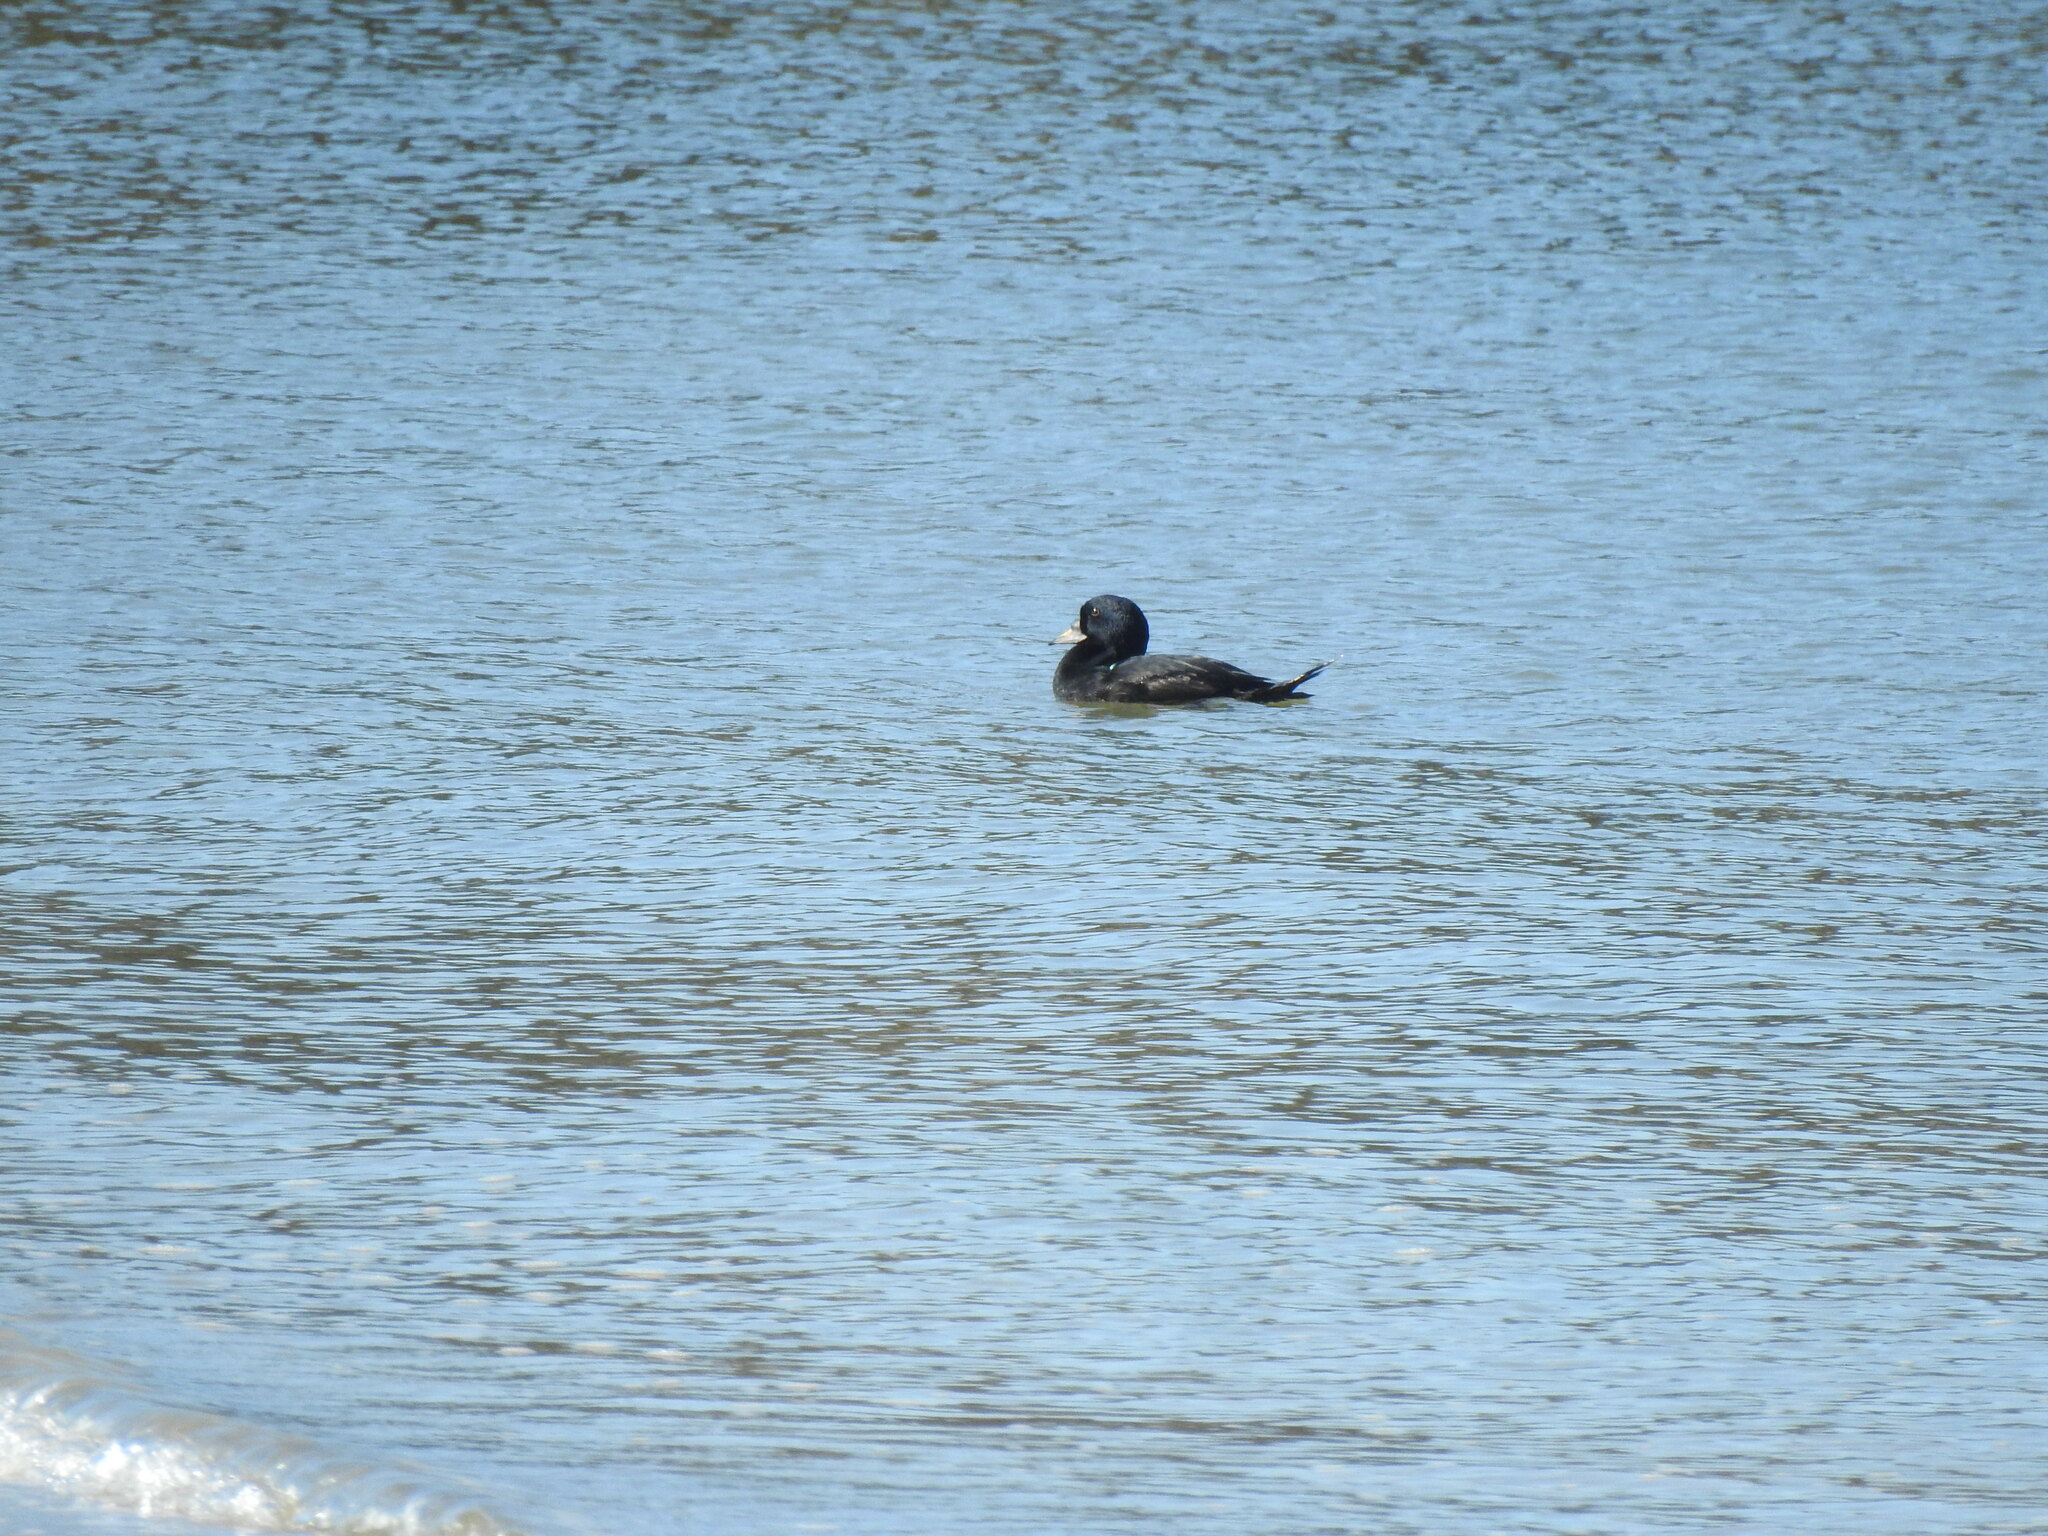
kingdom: Animalia
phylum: Chordata
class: Aves
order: Anseriformes
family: Anatidae
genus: Melanitta
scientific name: Melanitta nigra
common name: Common scoter
